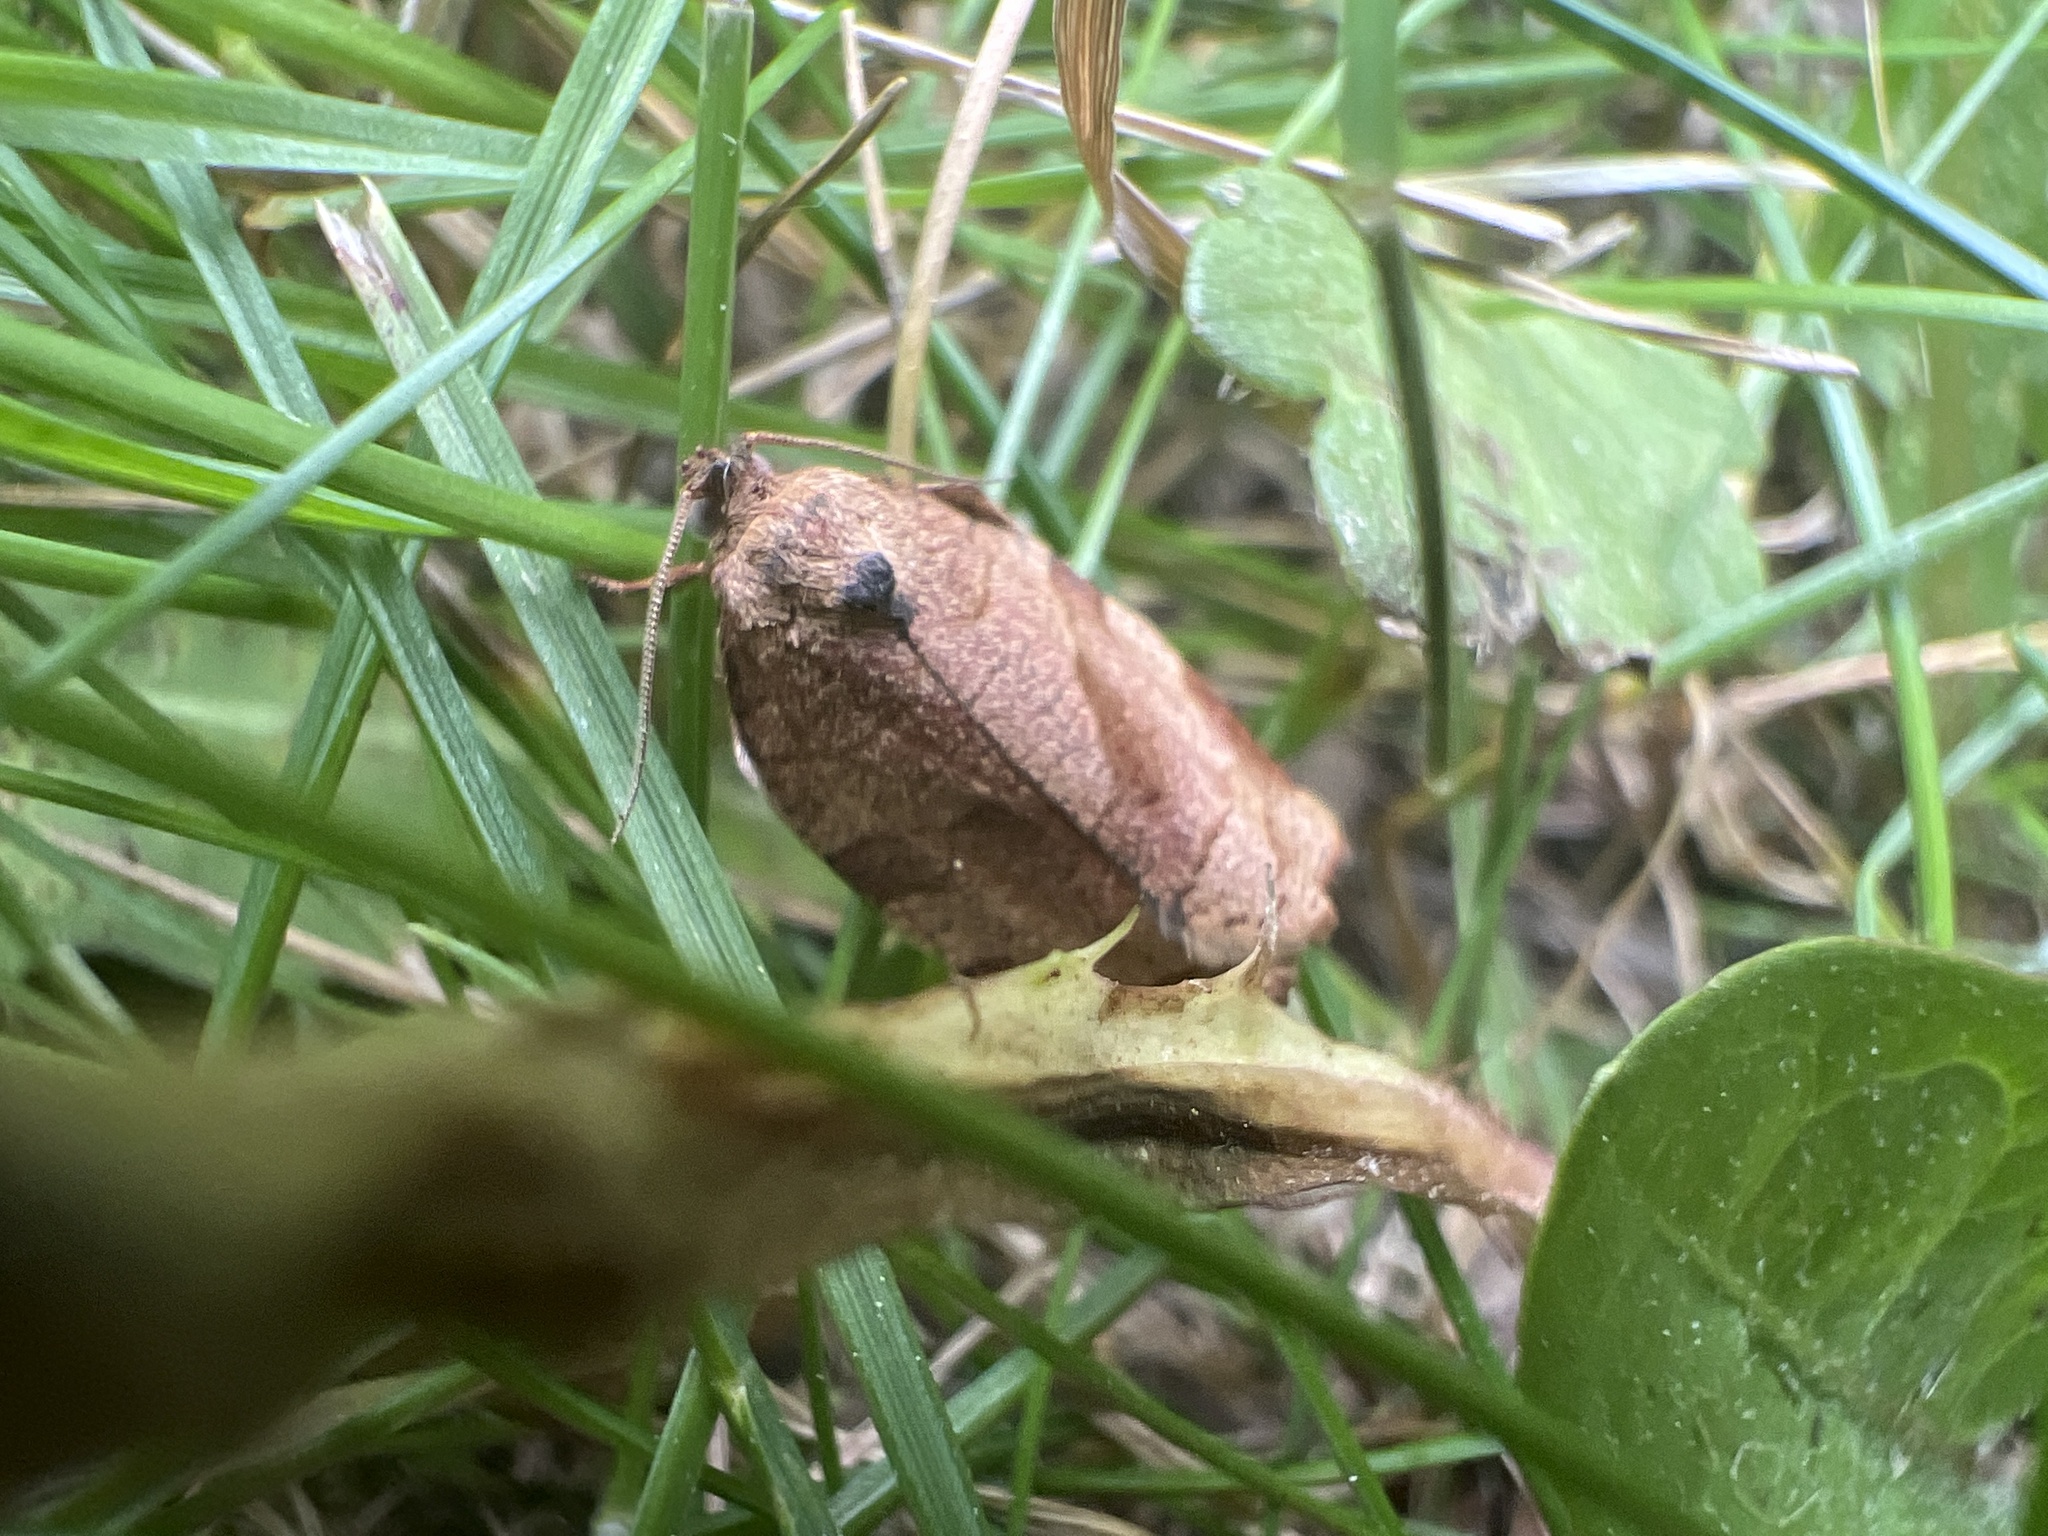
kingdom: Animalia
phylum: Arthropoda
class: Insecta
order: Lepidoptera
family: Tortricidae
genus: Choristoneura
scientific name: Choristoneura rosaceana
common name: Oblique-banded leafroller moth
